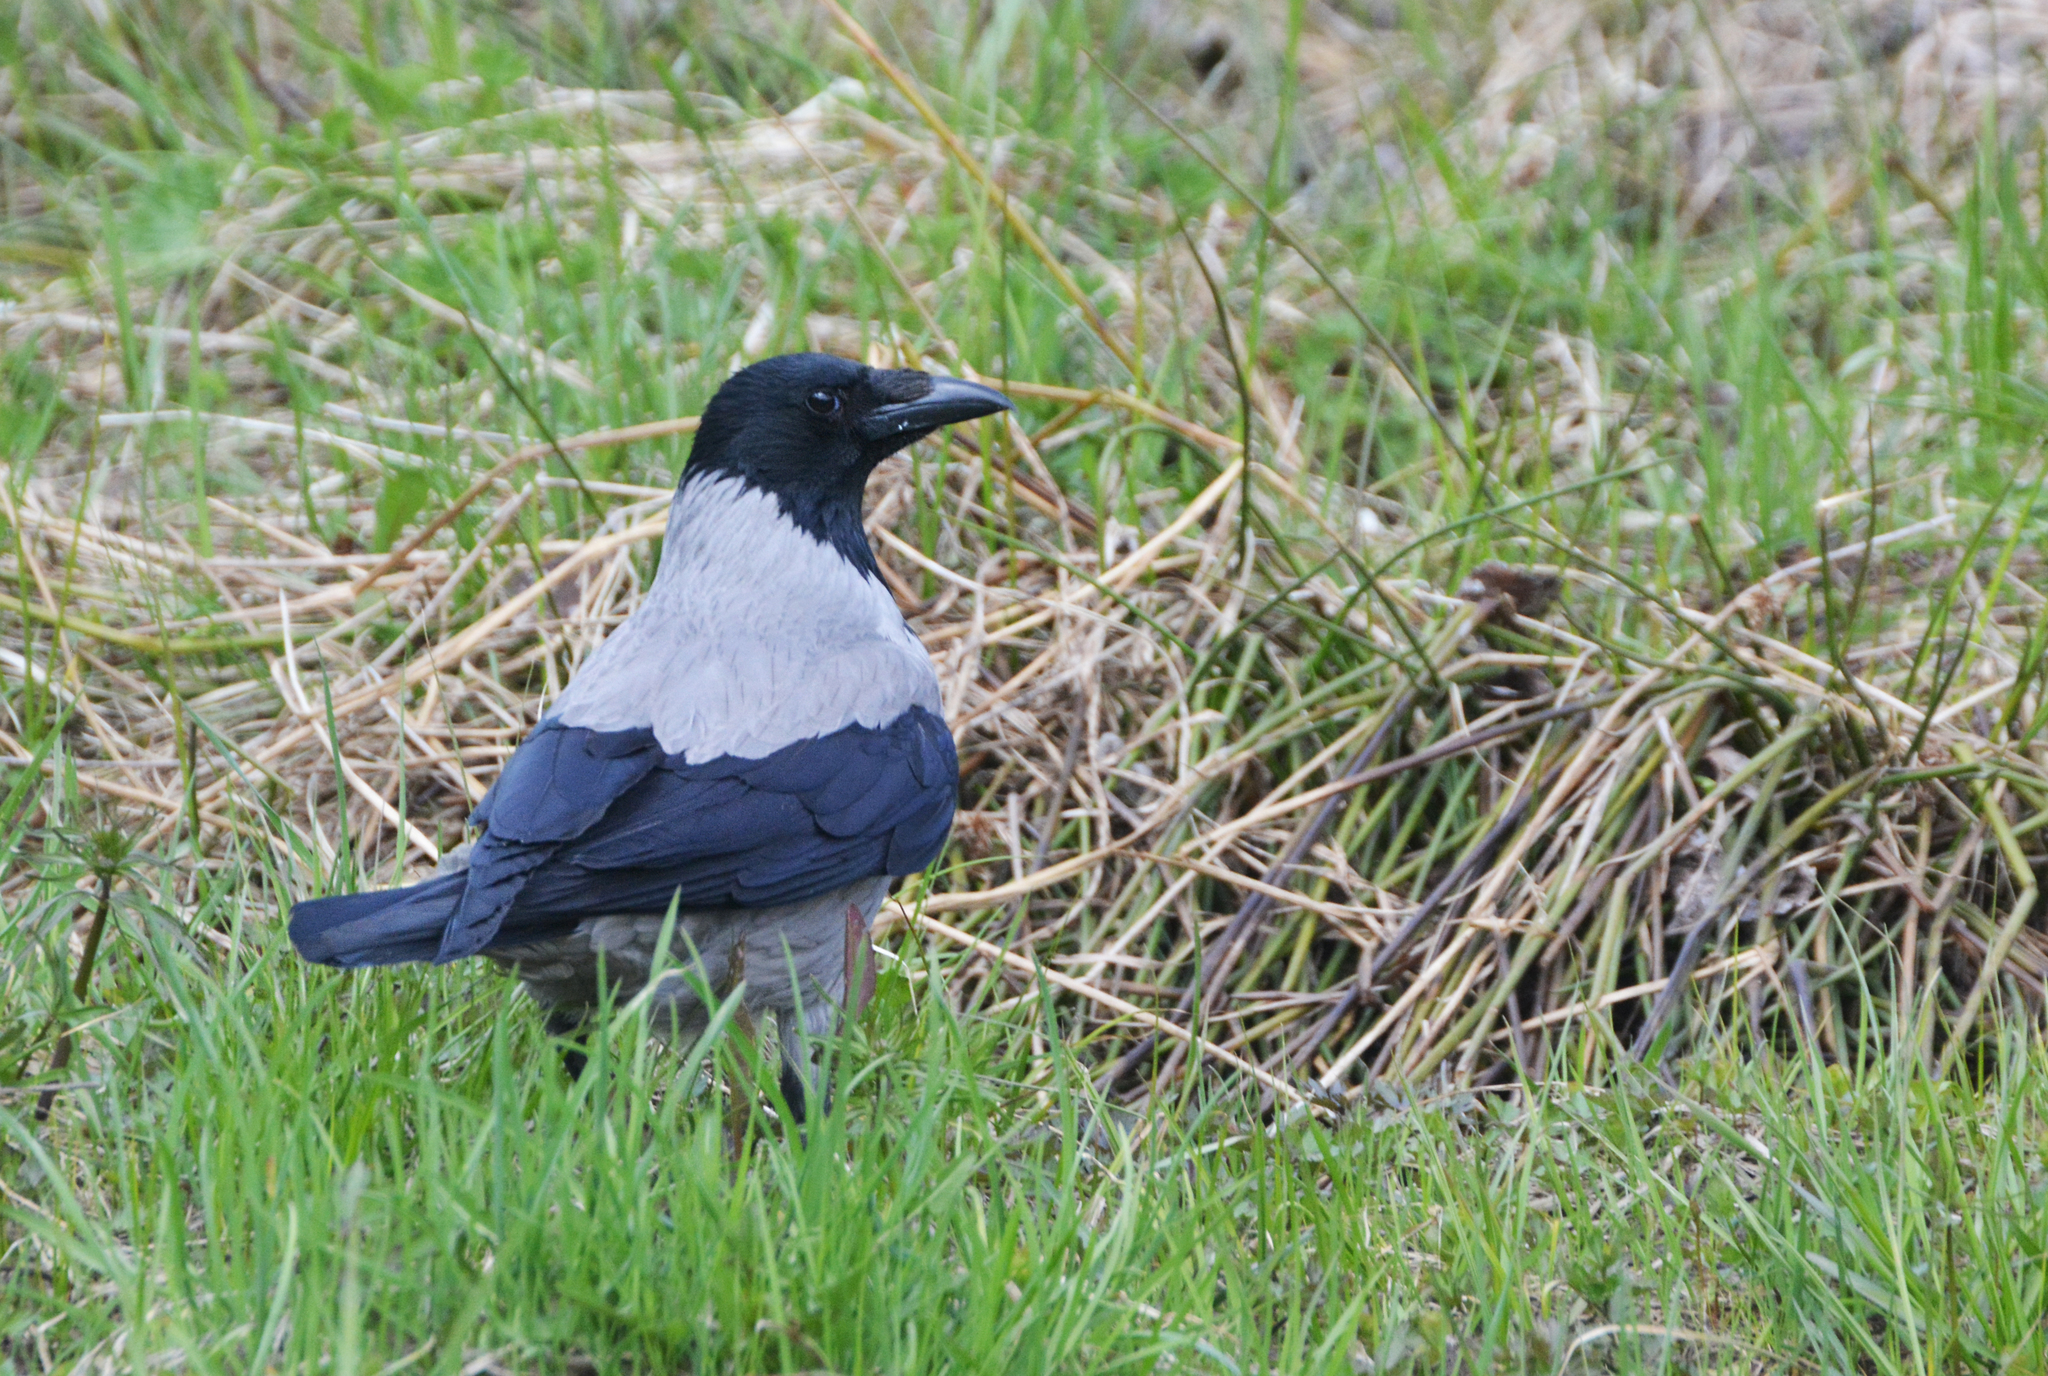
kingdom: Animalia
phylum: Chordata
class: Aves
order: Passeriformes
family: Corvidae
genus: Corvus
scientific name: Corvus cornix
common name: Hooded crow
